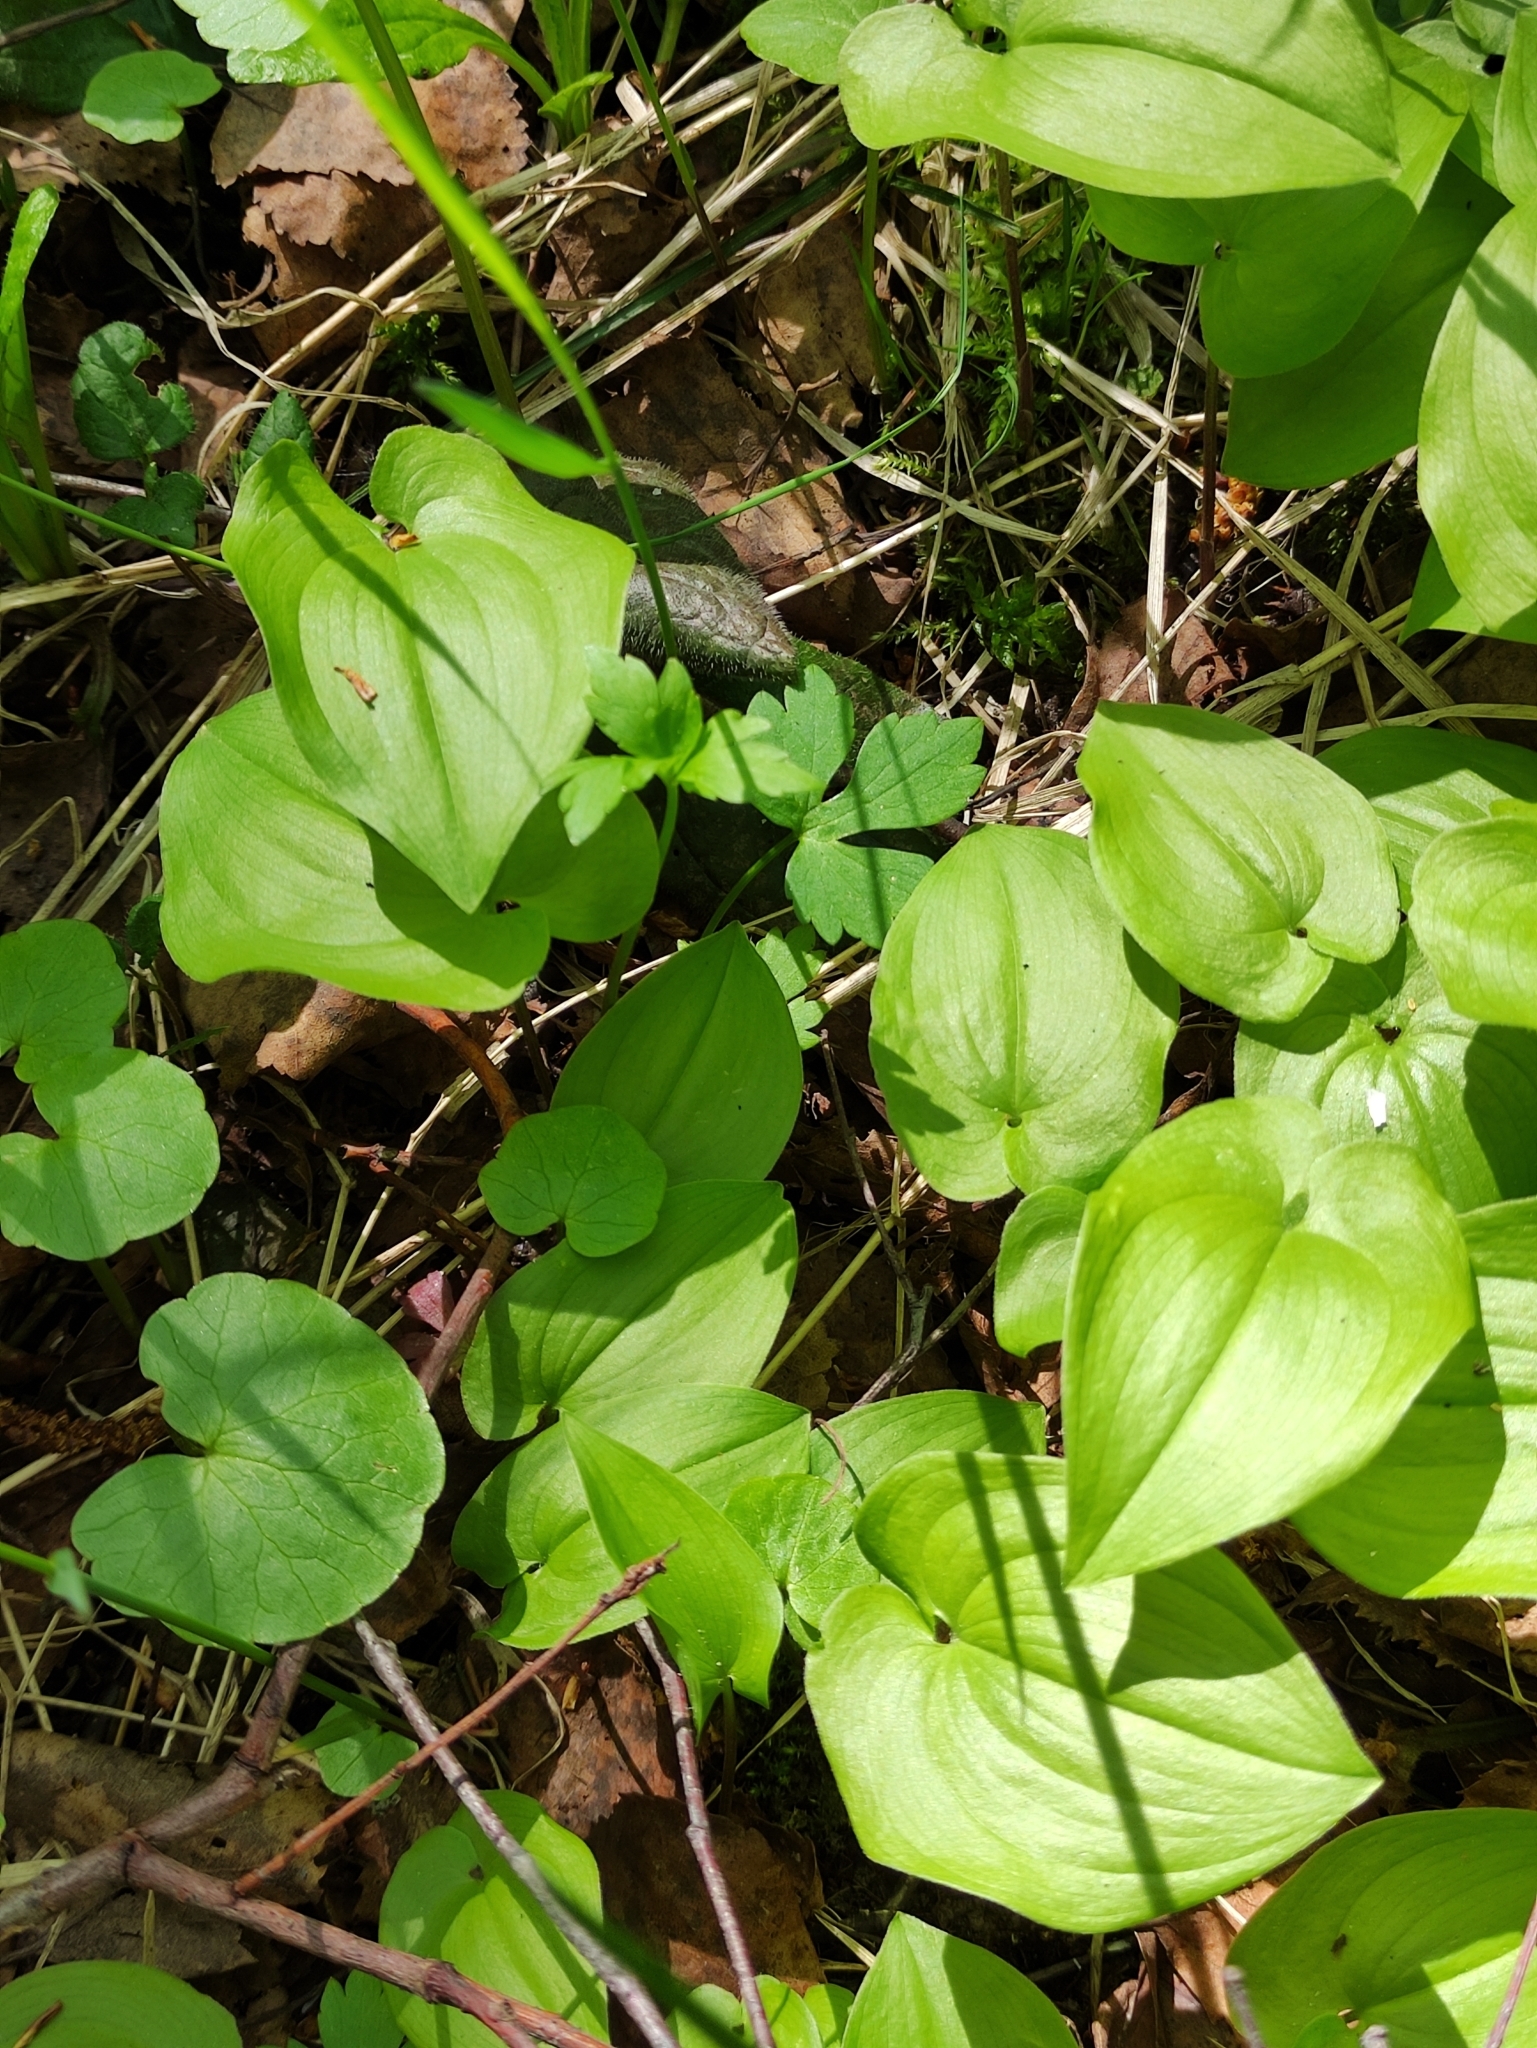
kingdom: Plantae
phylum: Tracheophyta
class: Liliopsida
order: Asparagales
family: Asparagaceae
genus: Maianthemum
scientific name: Maianthemum bifolium
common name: May lily
